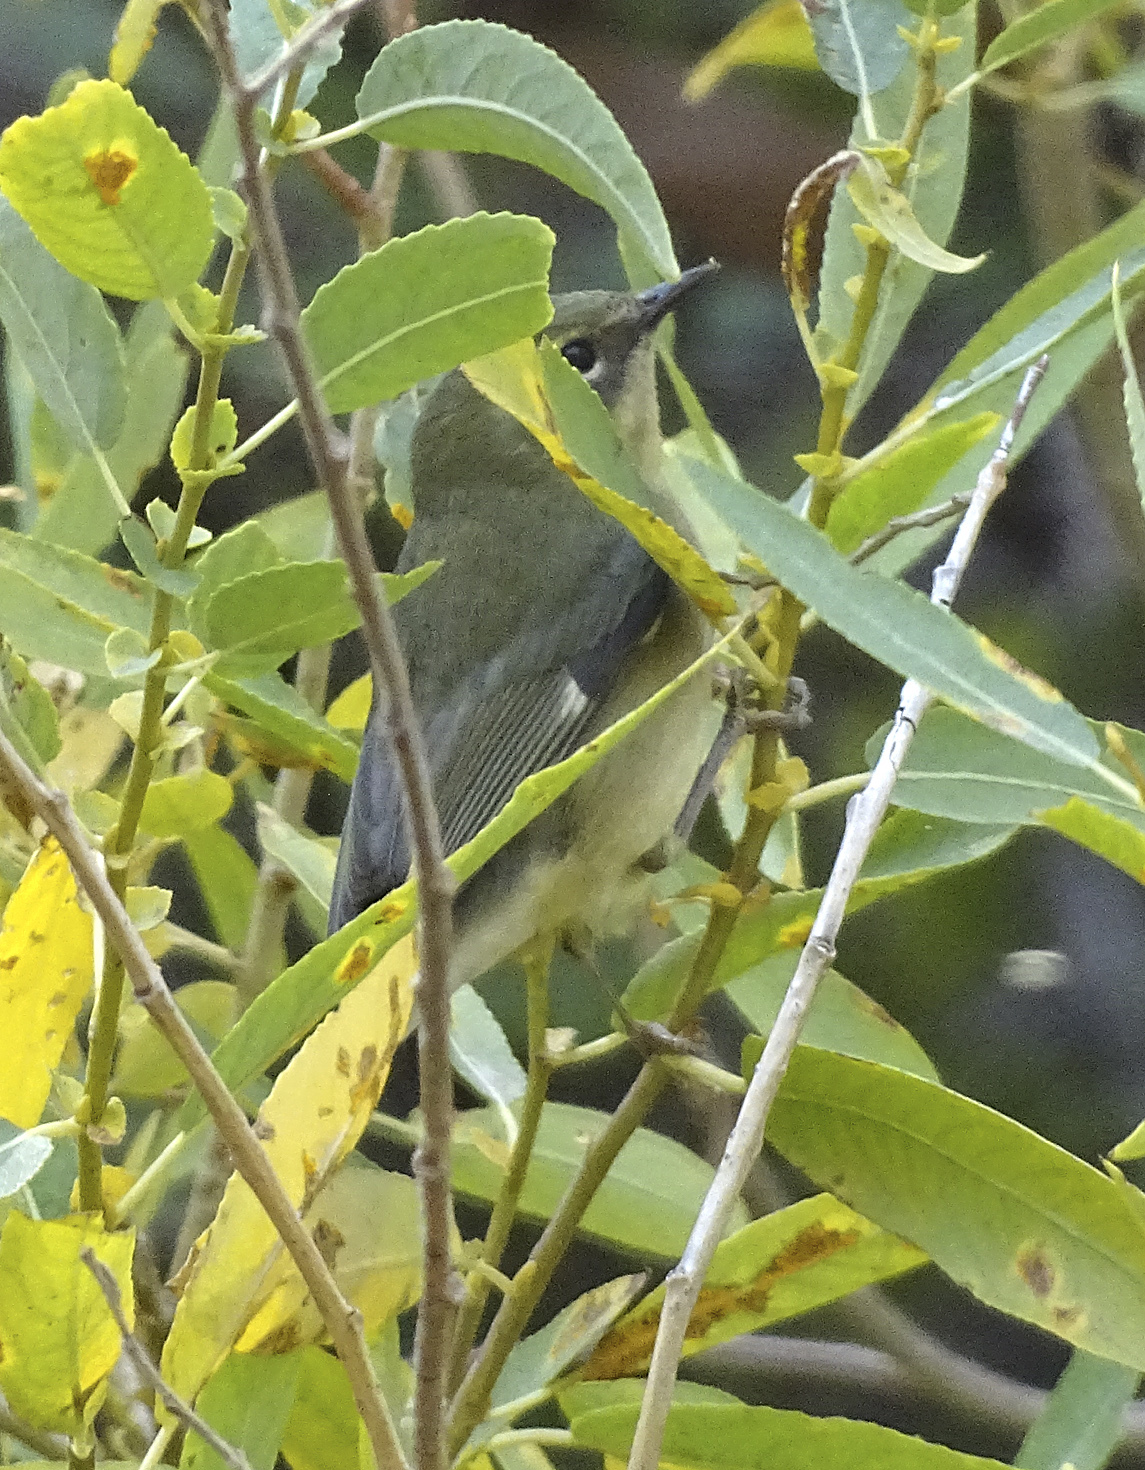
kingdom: Animalia
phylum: Chordata
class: Aves
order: Passeriformes
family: Parulidae
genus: Setophaga
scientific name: Setophaga caerulescens
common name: Black-throated blue warbler
